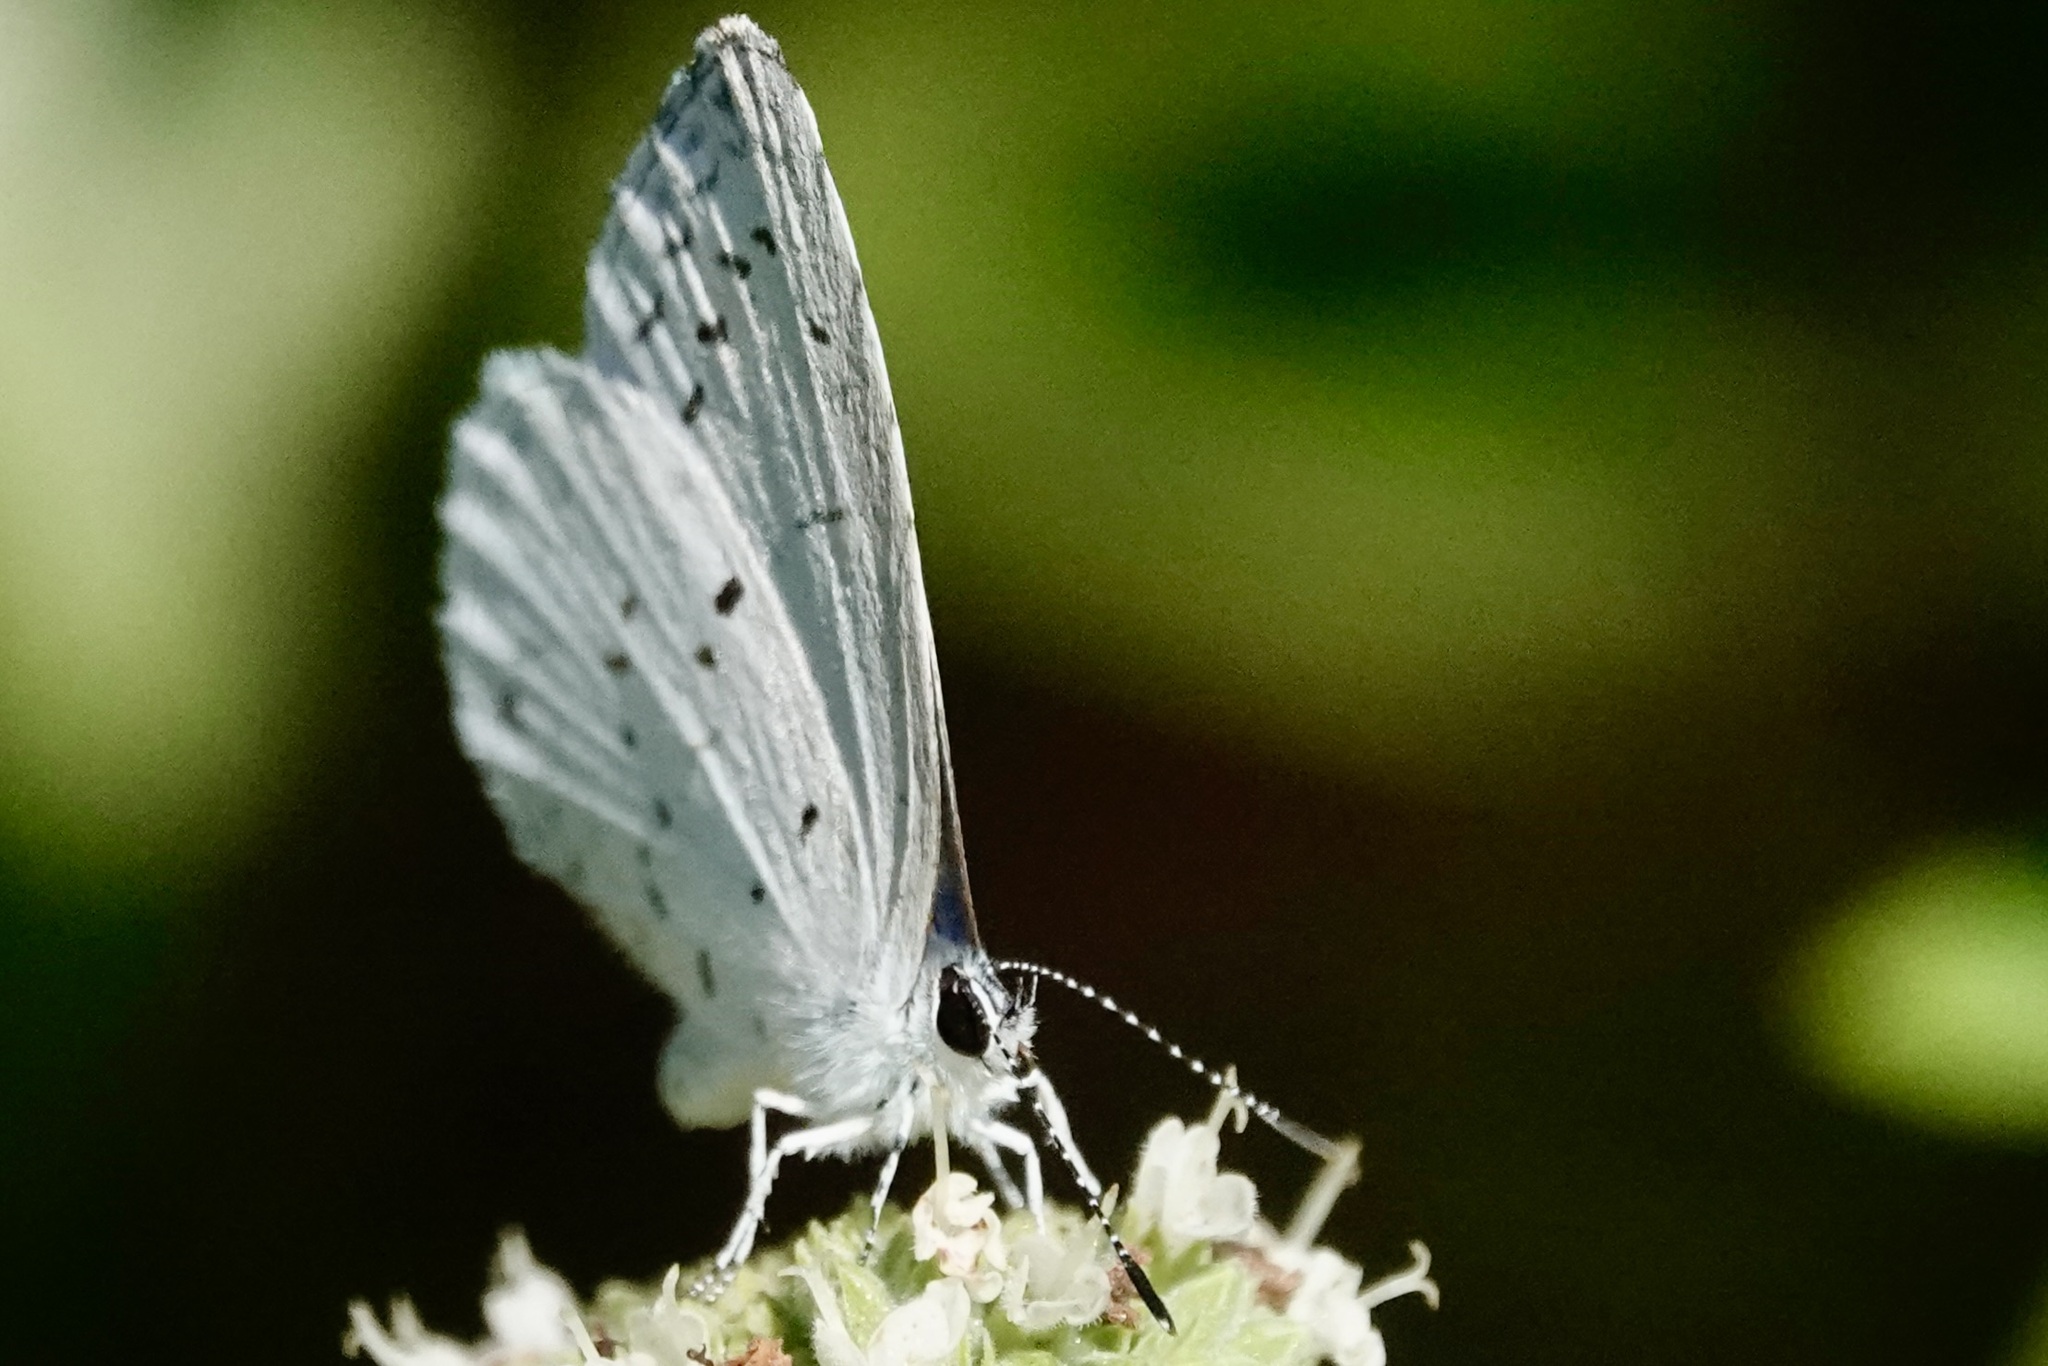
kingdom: Animalia
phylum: Arthropoda
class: Insecta
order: Lepidoptera
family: Lycaenidae
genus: Cyaniris
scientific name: Cyaniris neglecta
